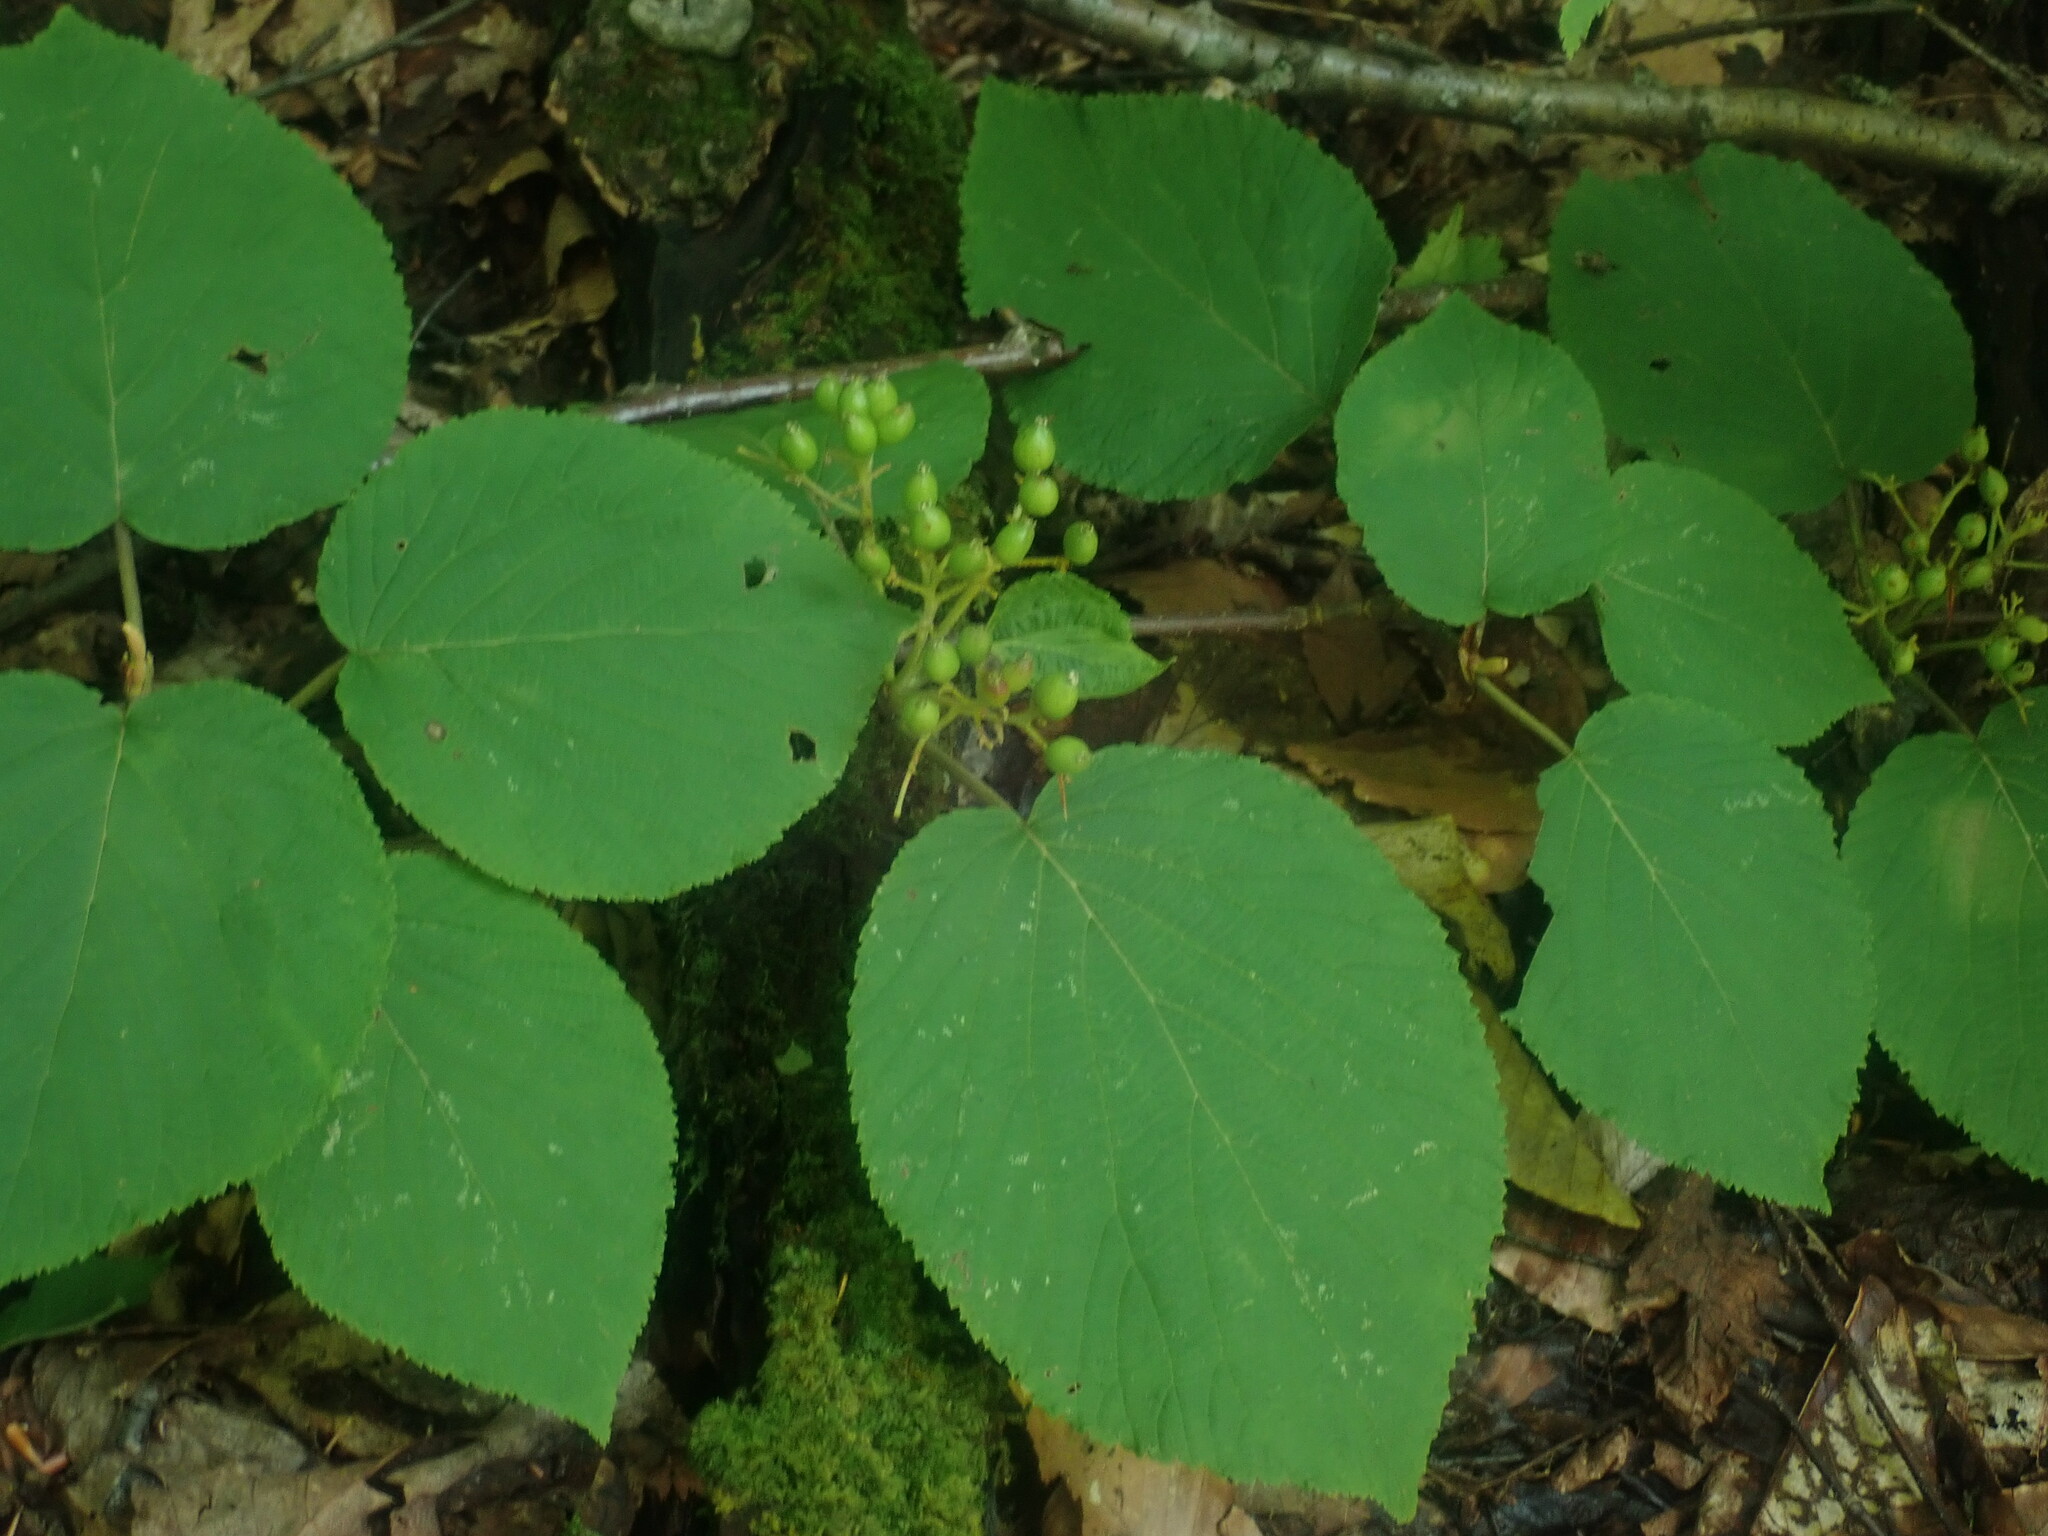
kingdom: Plantae
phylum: Tracheophyta
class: Magnoliopsida
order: Dipsacales
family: Viburnaceae
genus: Viburnum
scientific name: Viburnum lantanoides
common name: Hobblebush
